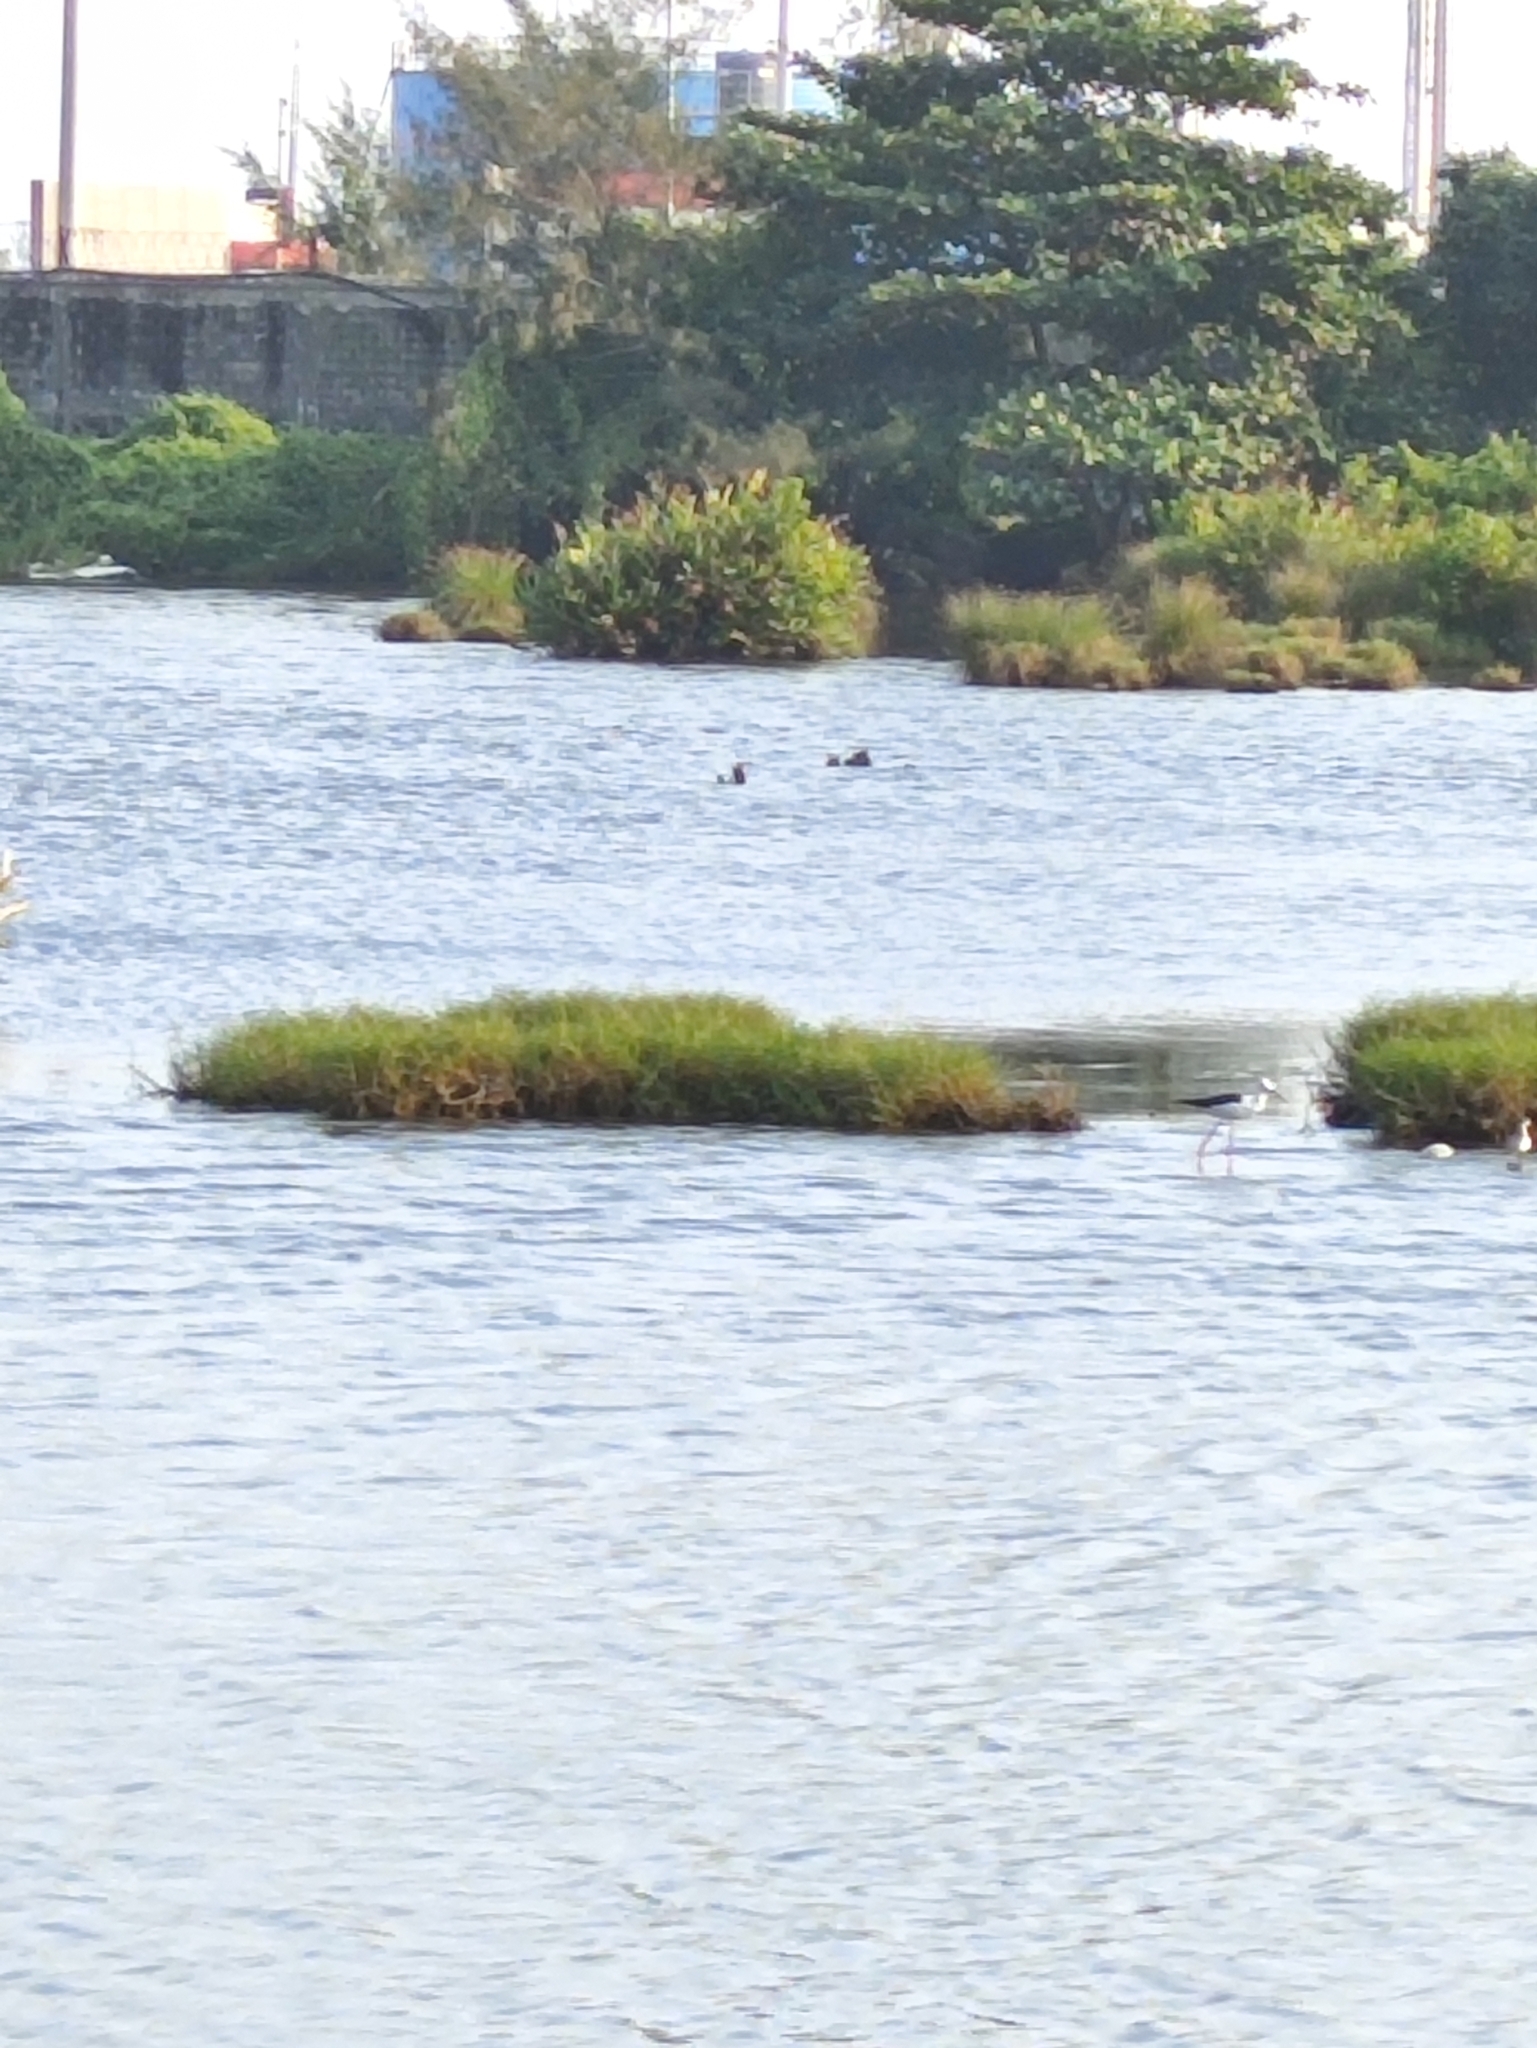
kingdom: Animalia
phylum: Chordata
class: Aves
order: Charadriiformes
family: Recurvirostridae
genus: Himantopus
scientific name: Himantopus himantopus
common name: Black-winged stilt
